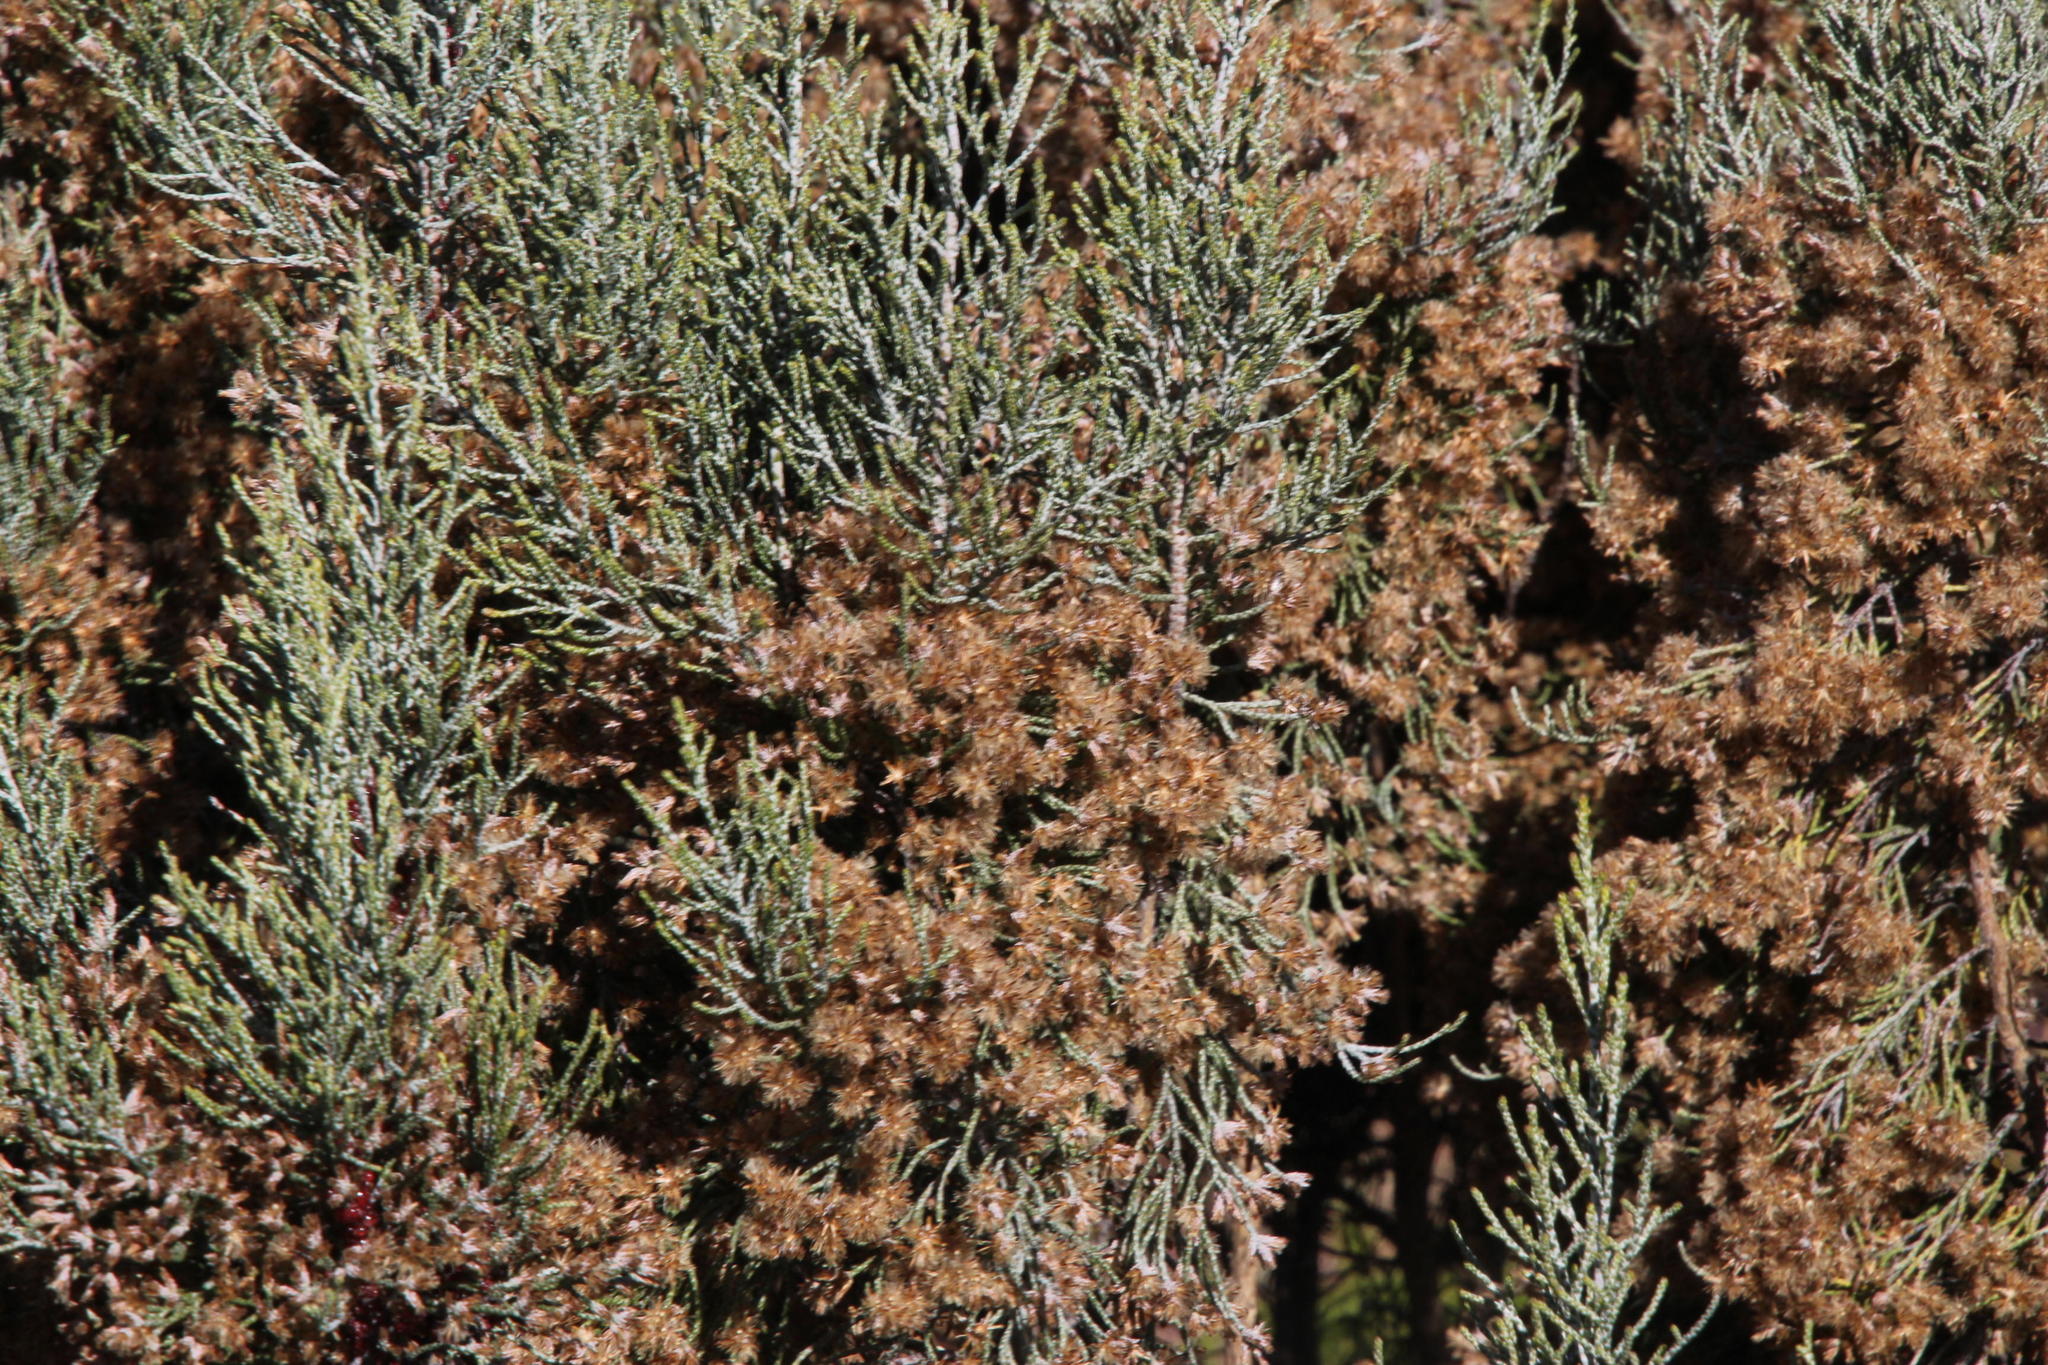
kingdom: Plantae
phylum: Tracheophyta
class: Magnoliopsida
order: Asterales
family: Asteraceae
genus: Dicerothamnus
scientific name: Dicerothamnus rhinocerotis
